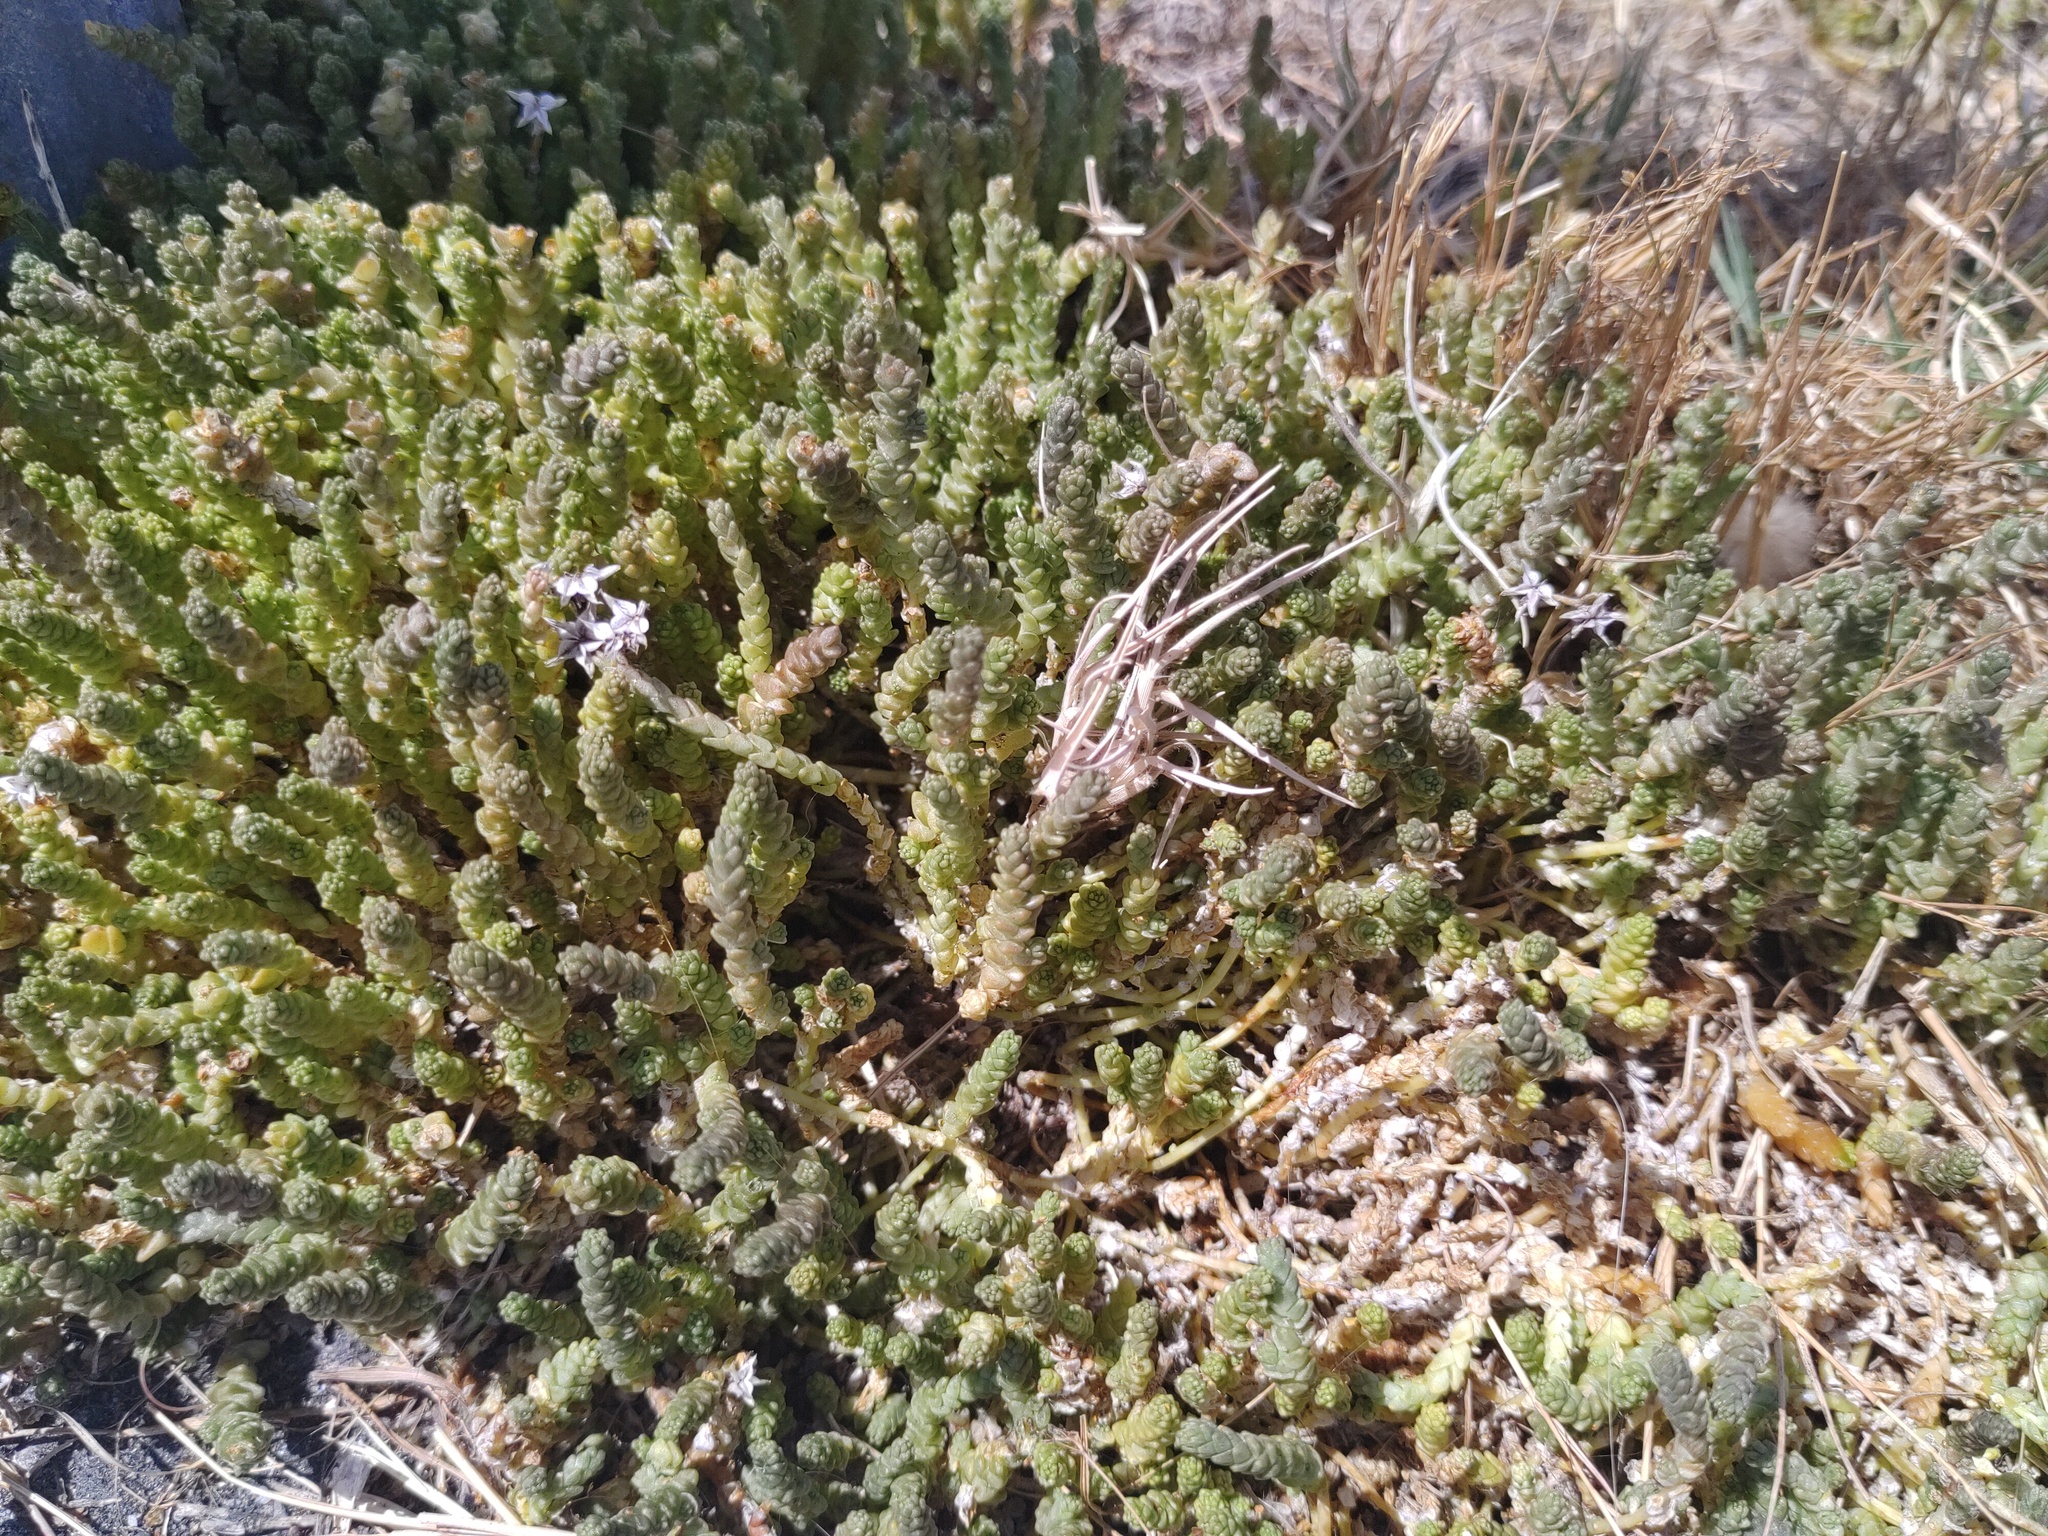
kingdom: Plantae
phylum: Tracheophyta
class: Magnoliopsida
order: Saxifragales
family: Crassulaceae
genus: Sedum
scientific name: Sedum acre
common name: Biting stonecrop
